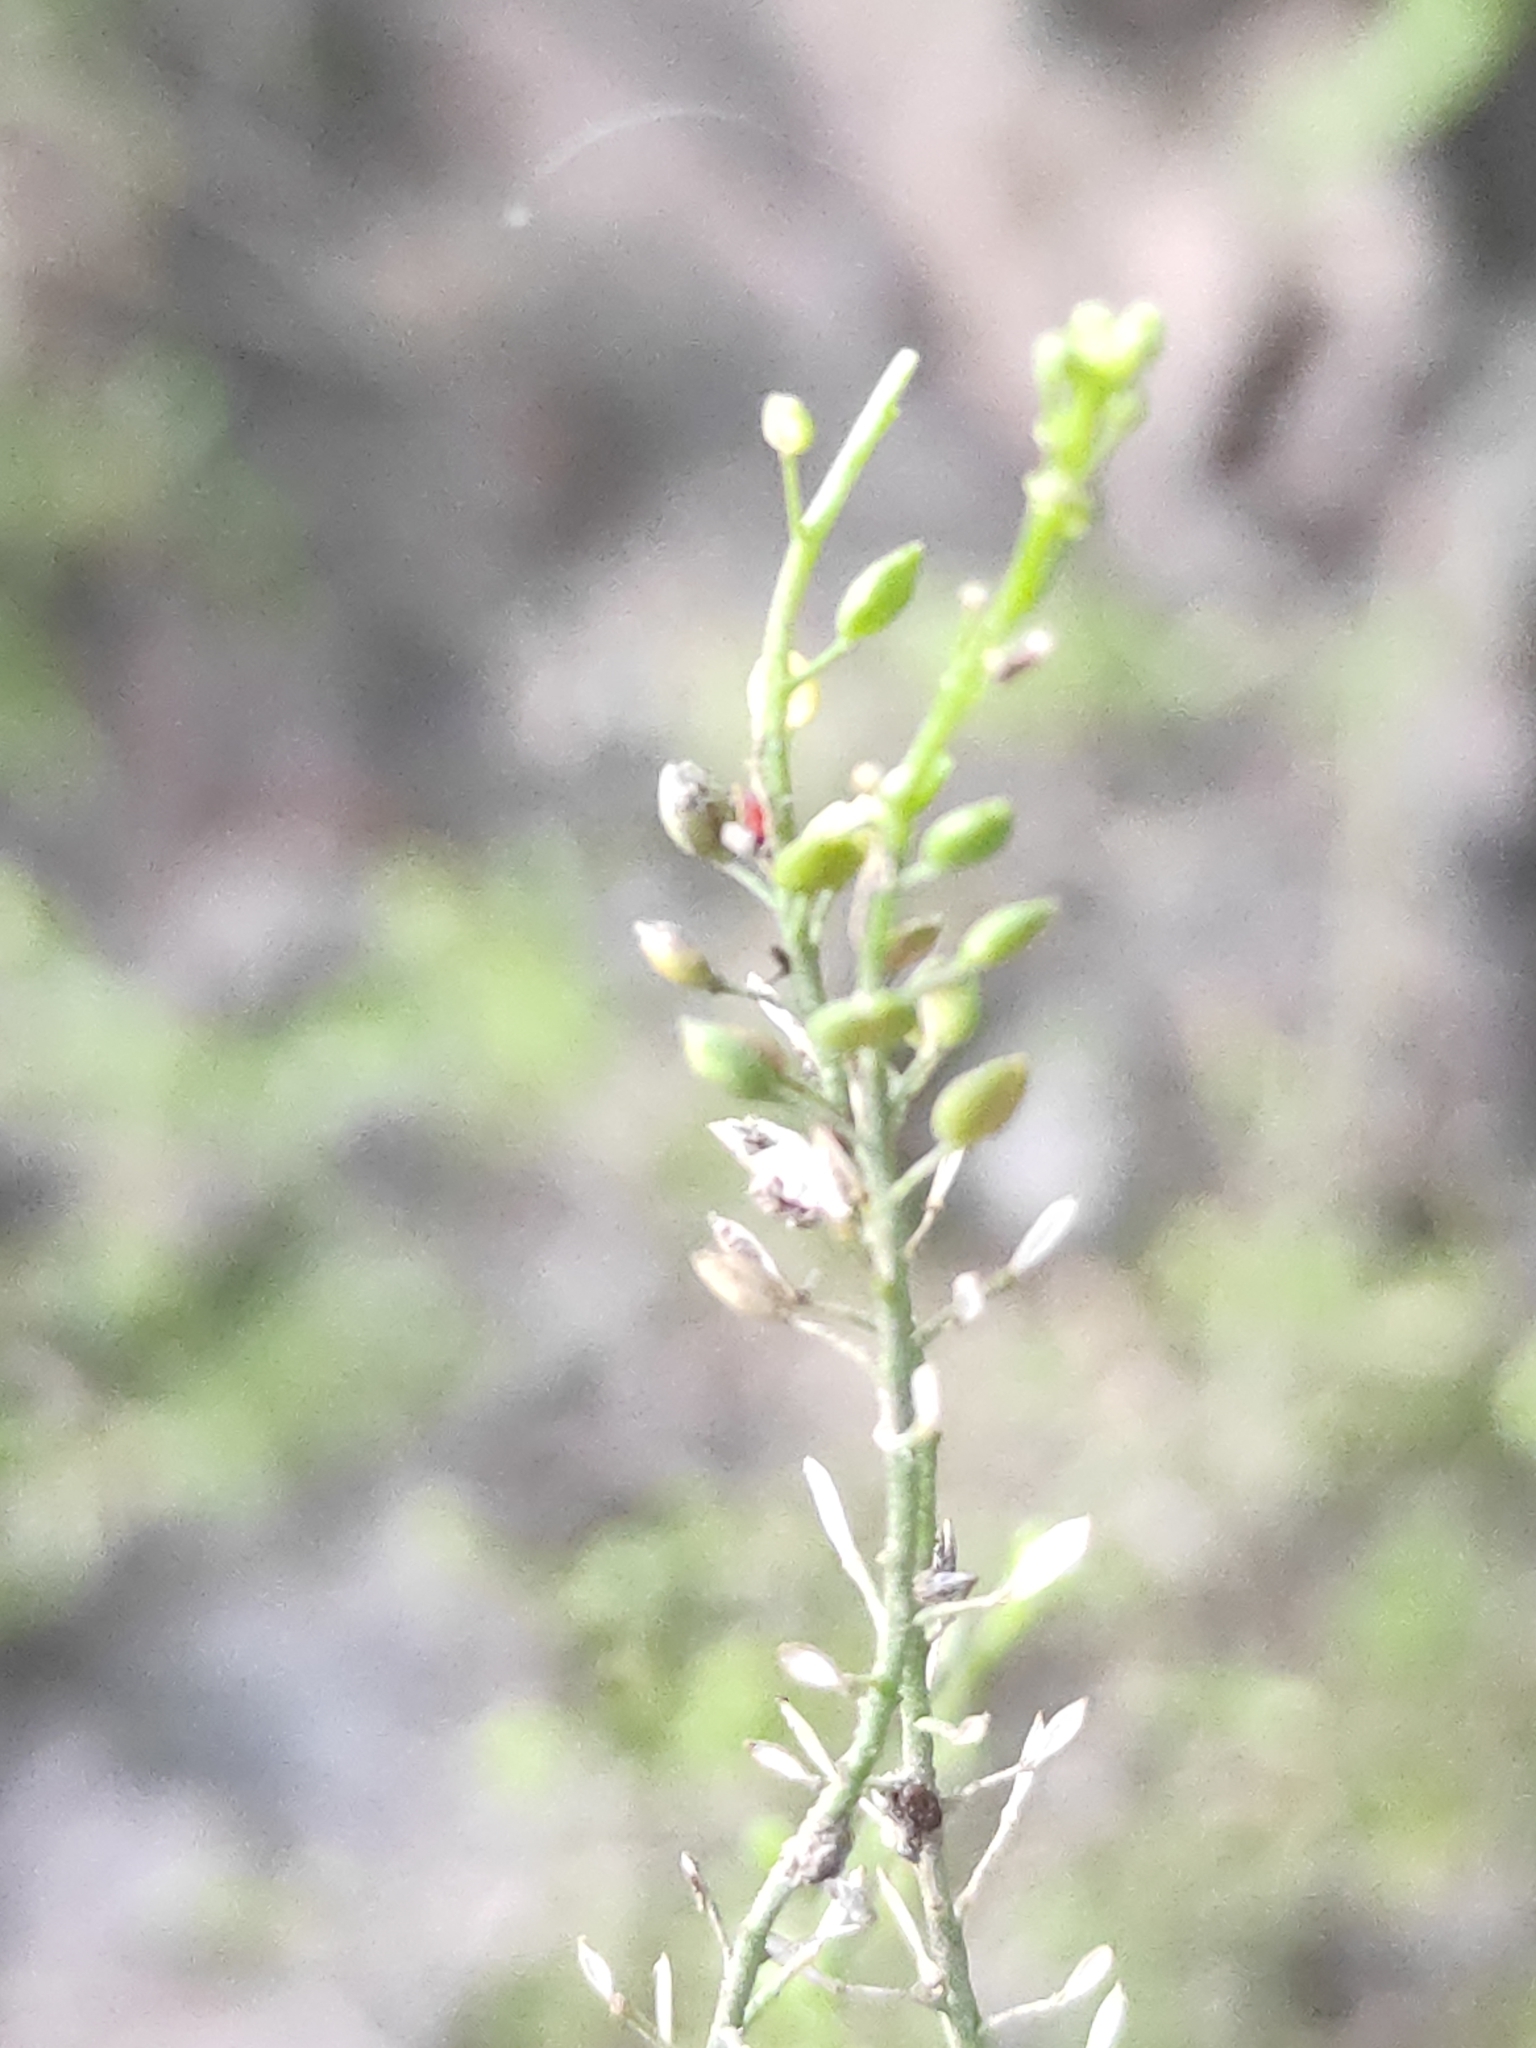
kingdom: Plantae
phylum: Tracheophyta
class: Magnoliopsida
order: Brassicales
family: Brassicaceae
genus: Lepidium
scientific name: Lepidium ruderale
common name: Narrow-leaved pepperwort
